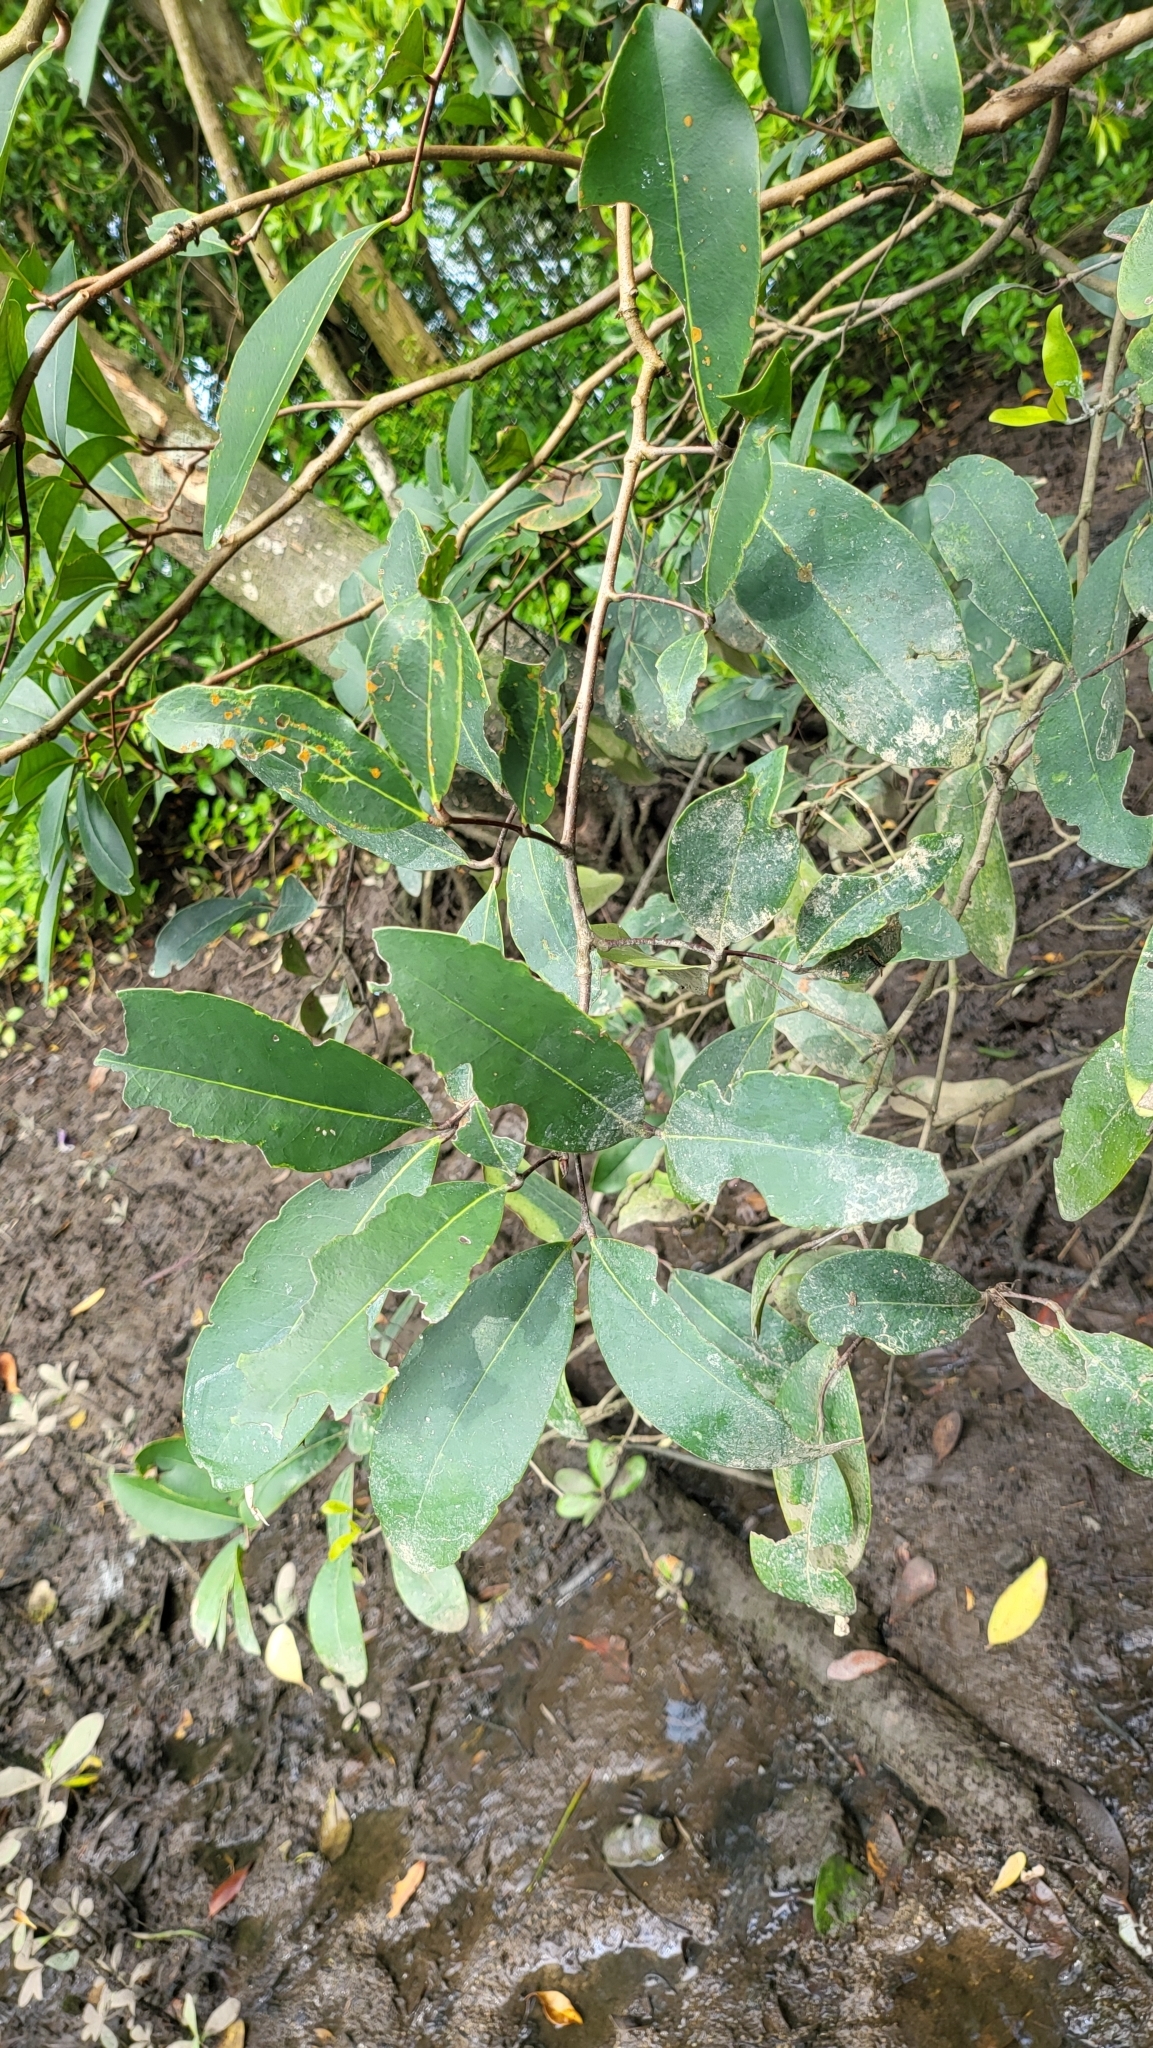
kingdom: Plantae
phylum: Tracheophyta
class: Magnoliopsida
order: Sapindales
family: Meliaceae
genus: Xylocarpus
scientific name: Xylocarpus granatum
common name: Apple mangrove
